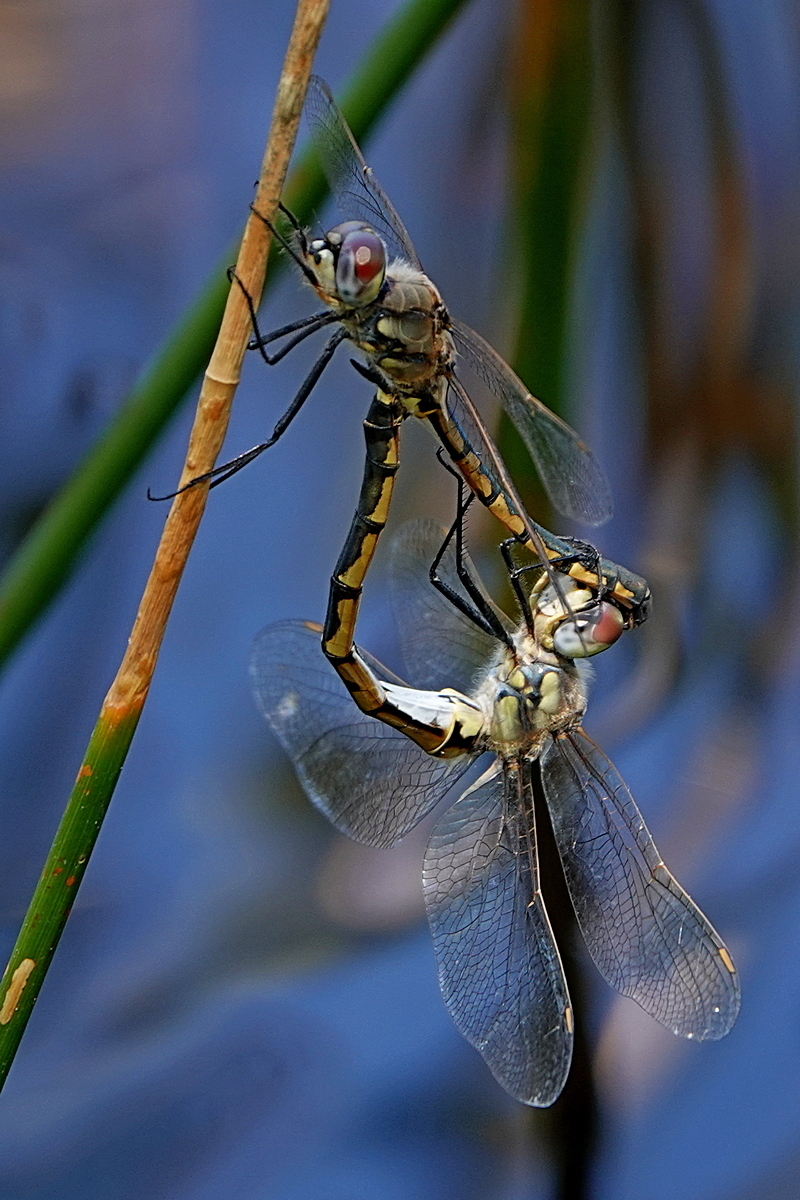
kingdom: Animalia
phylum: Arthropoda
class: Insecta
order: Odonata
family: Corduliidae
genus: Hemicordulia
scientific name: Hemicordulia tau
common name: Tau emerald
